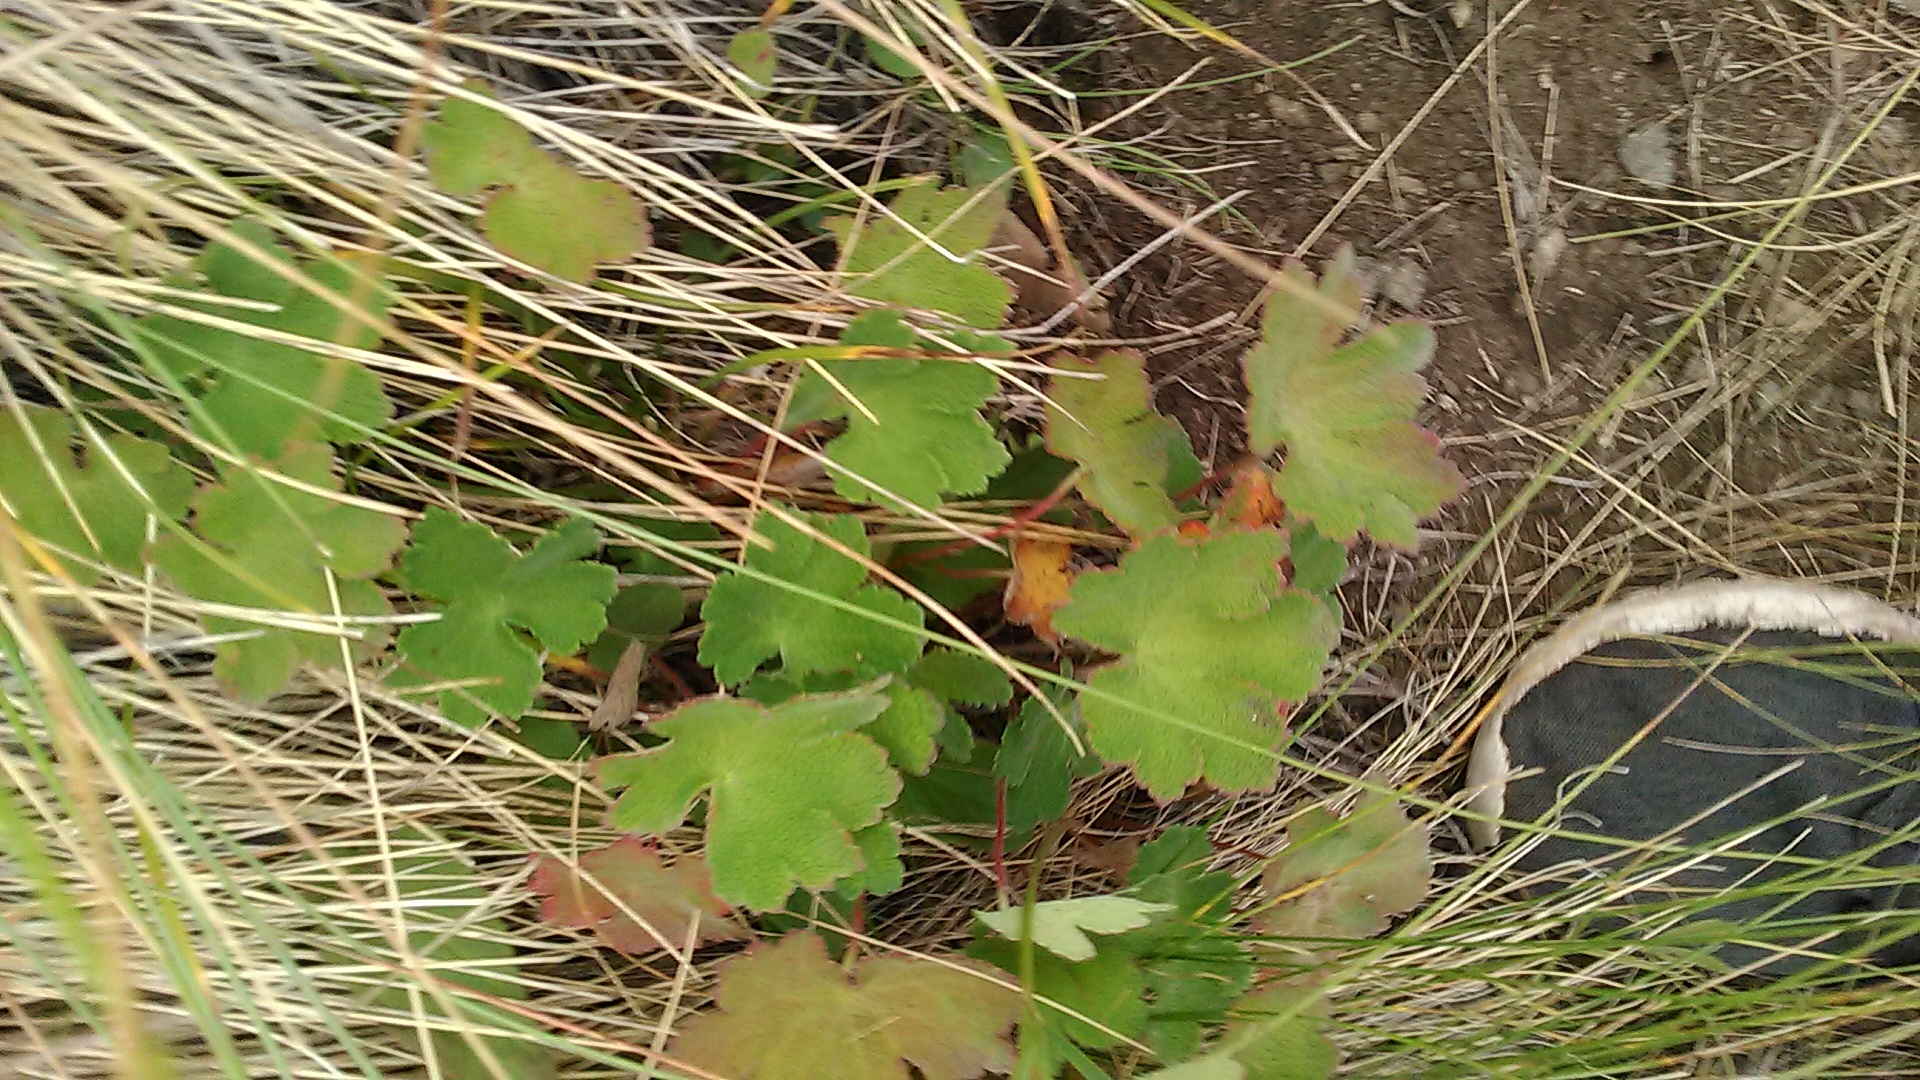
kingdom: Plantae
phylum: Tracheophyta
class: Magnoliopsida
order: Geraniales
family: Geraniaceae
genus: Geranium
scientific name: Geranium renardii
